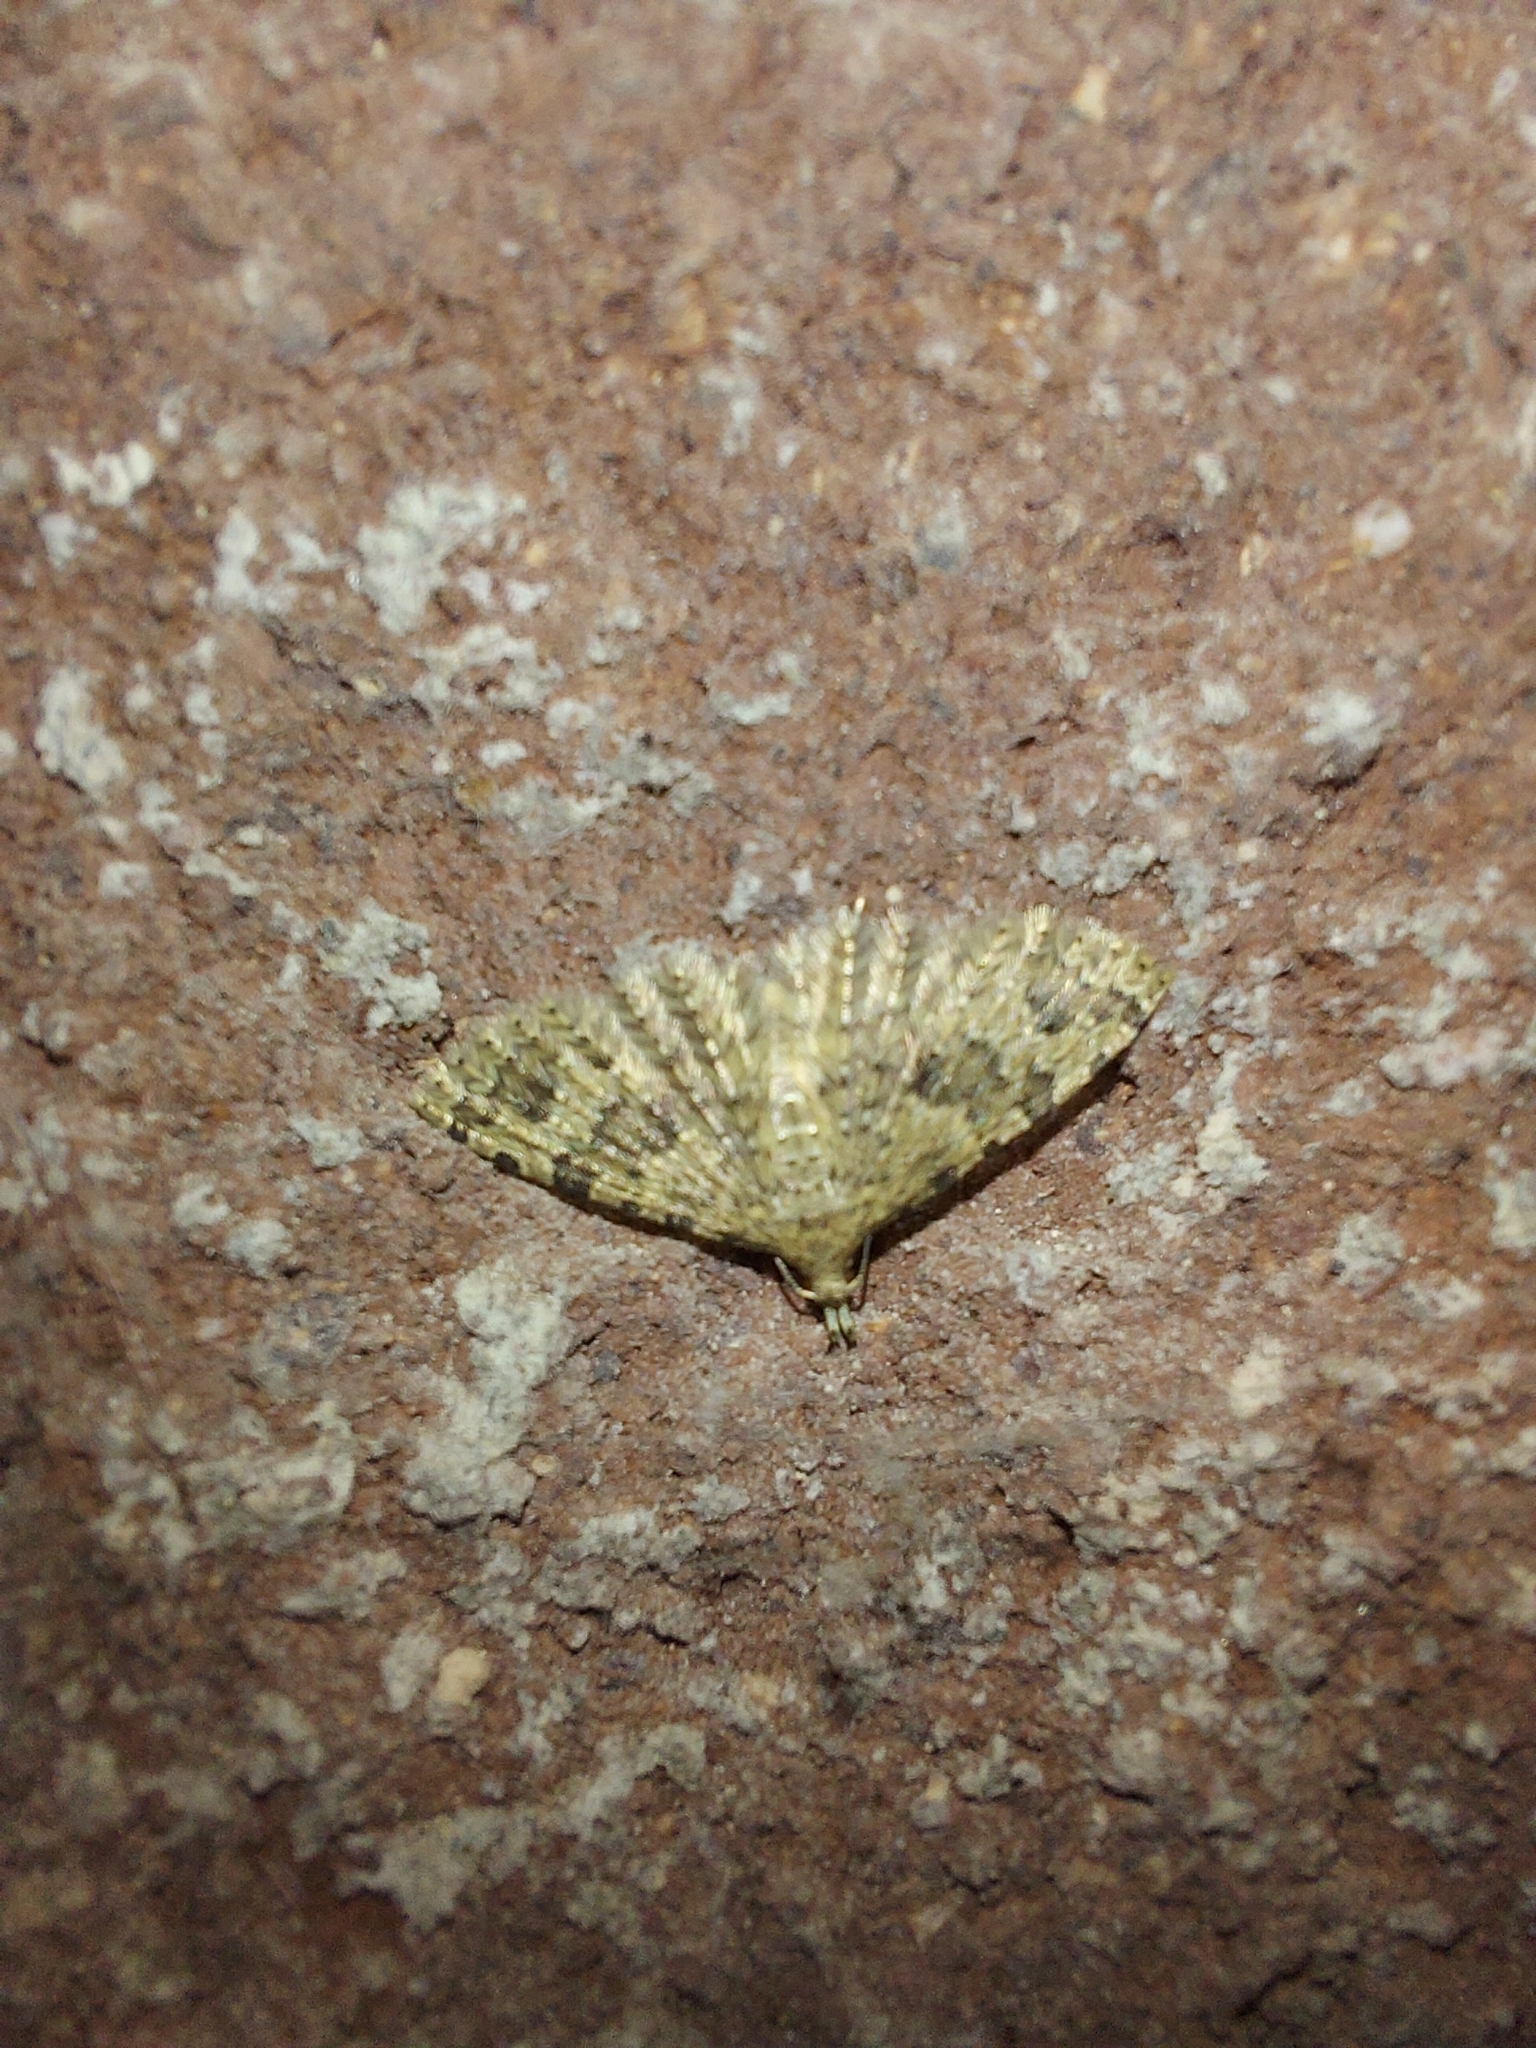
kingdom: Animalia
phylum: Arthropoda
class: Insecta
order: Lepidoptera
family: Alucitidae
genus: Alucita
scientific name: Alucita hexadactyla
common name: Twenty-plume moth
